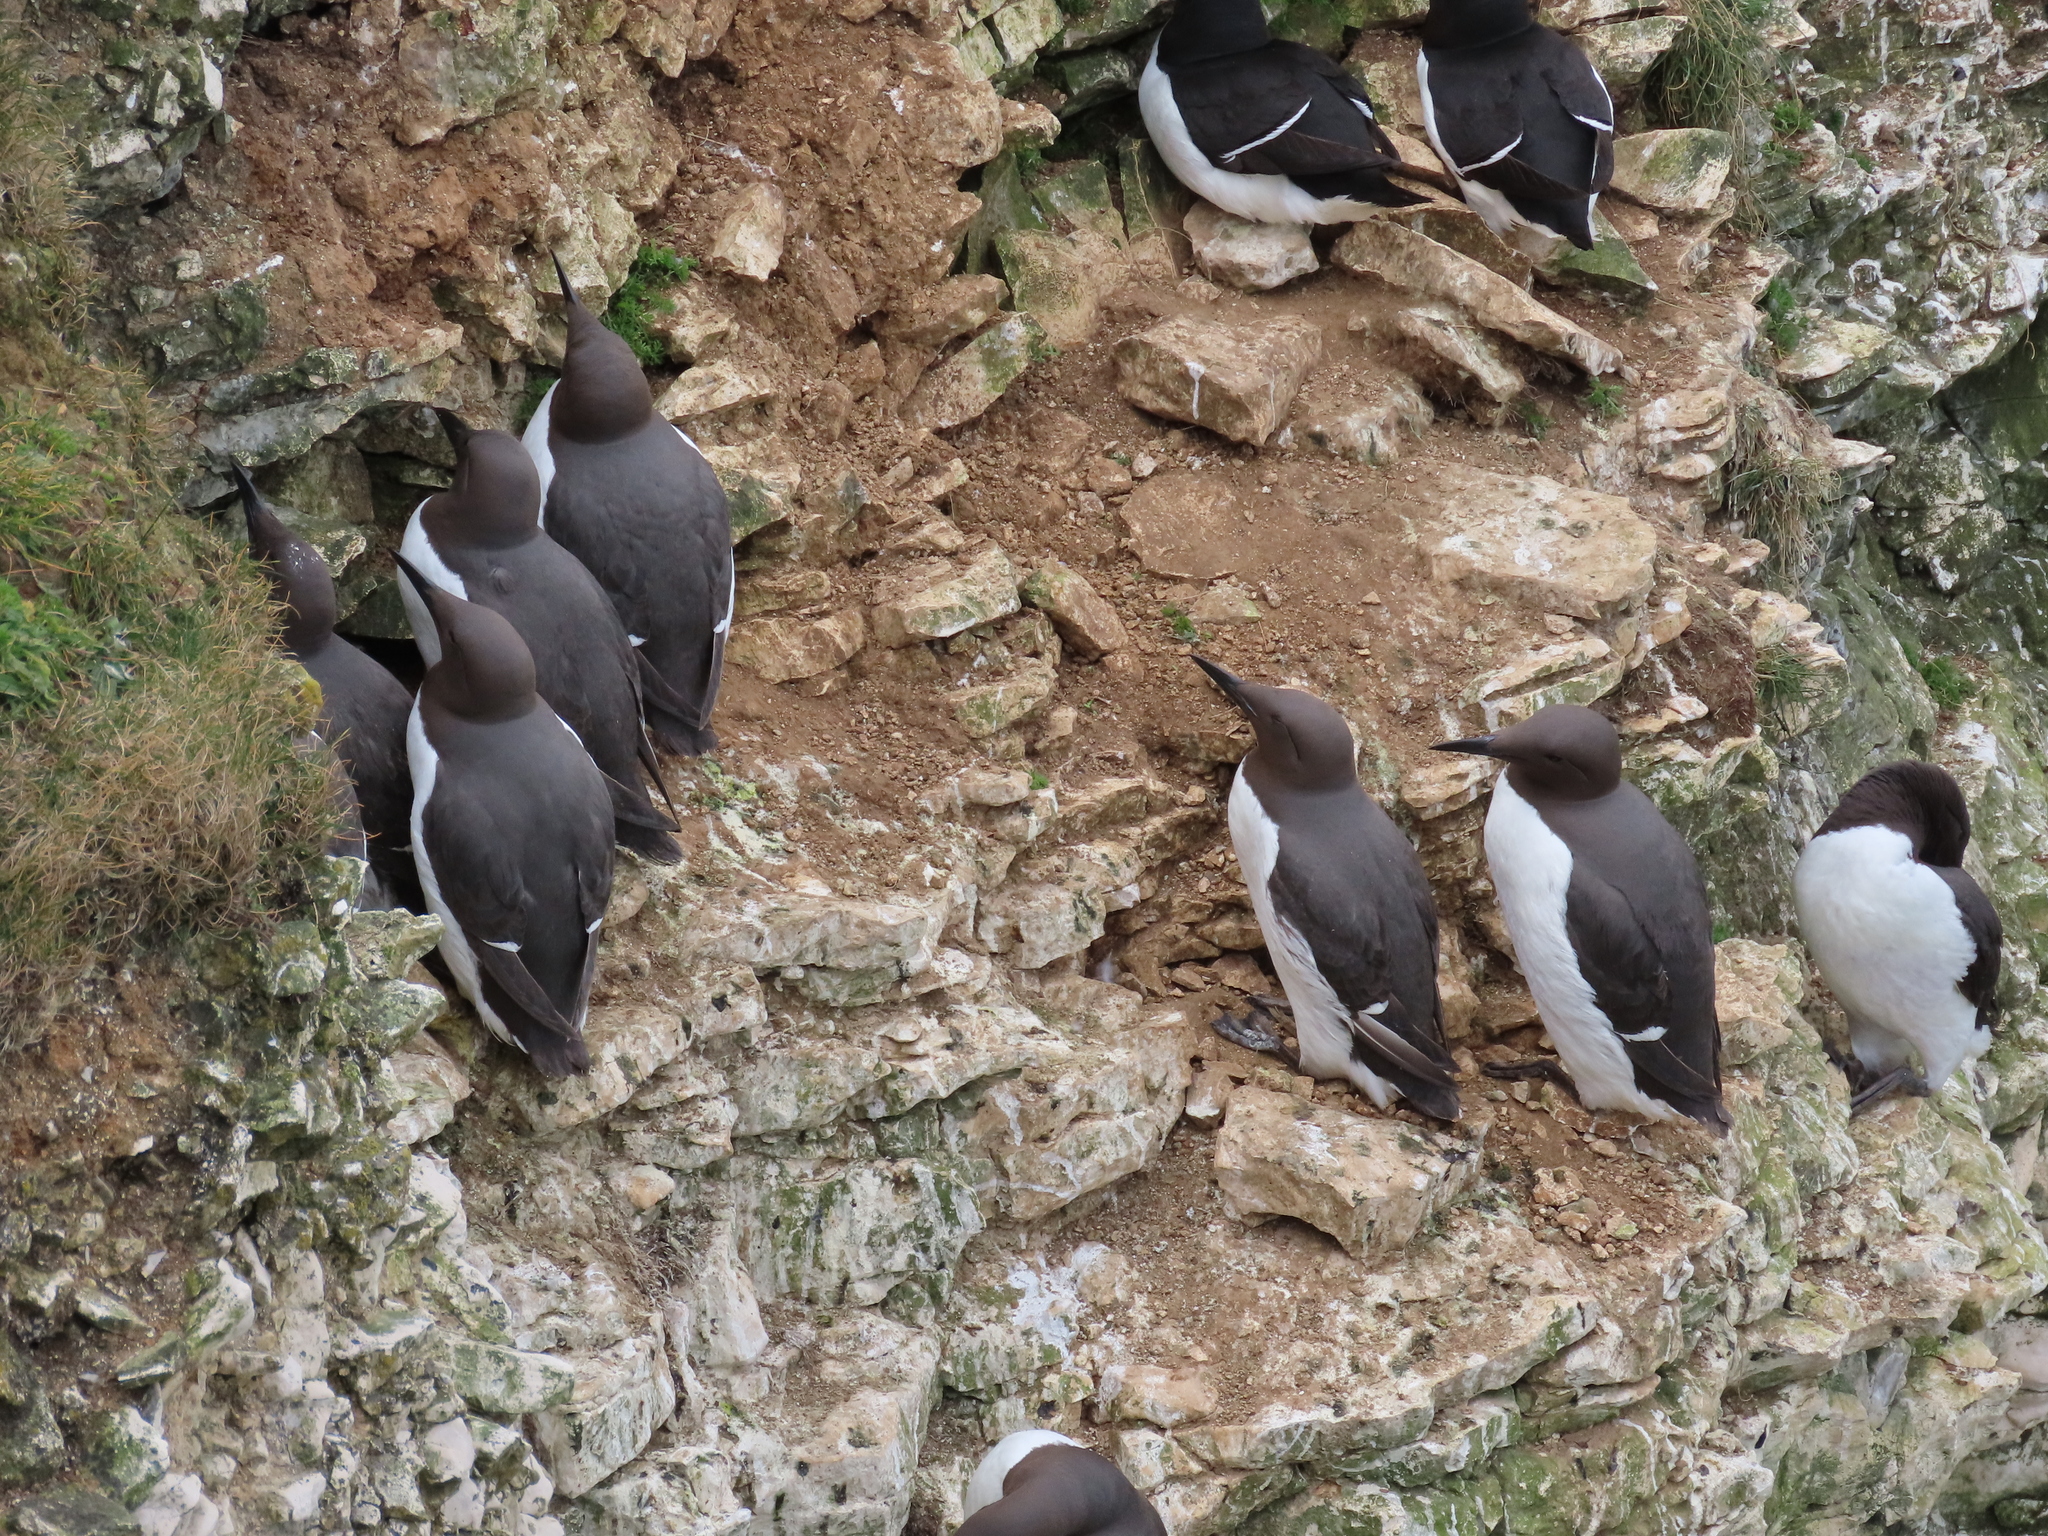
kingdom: Animalia
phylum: Chordata
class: Aves
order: Charadriiformes
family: Alcidae
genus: Uria
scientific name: Uria aalge
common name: Common murre
